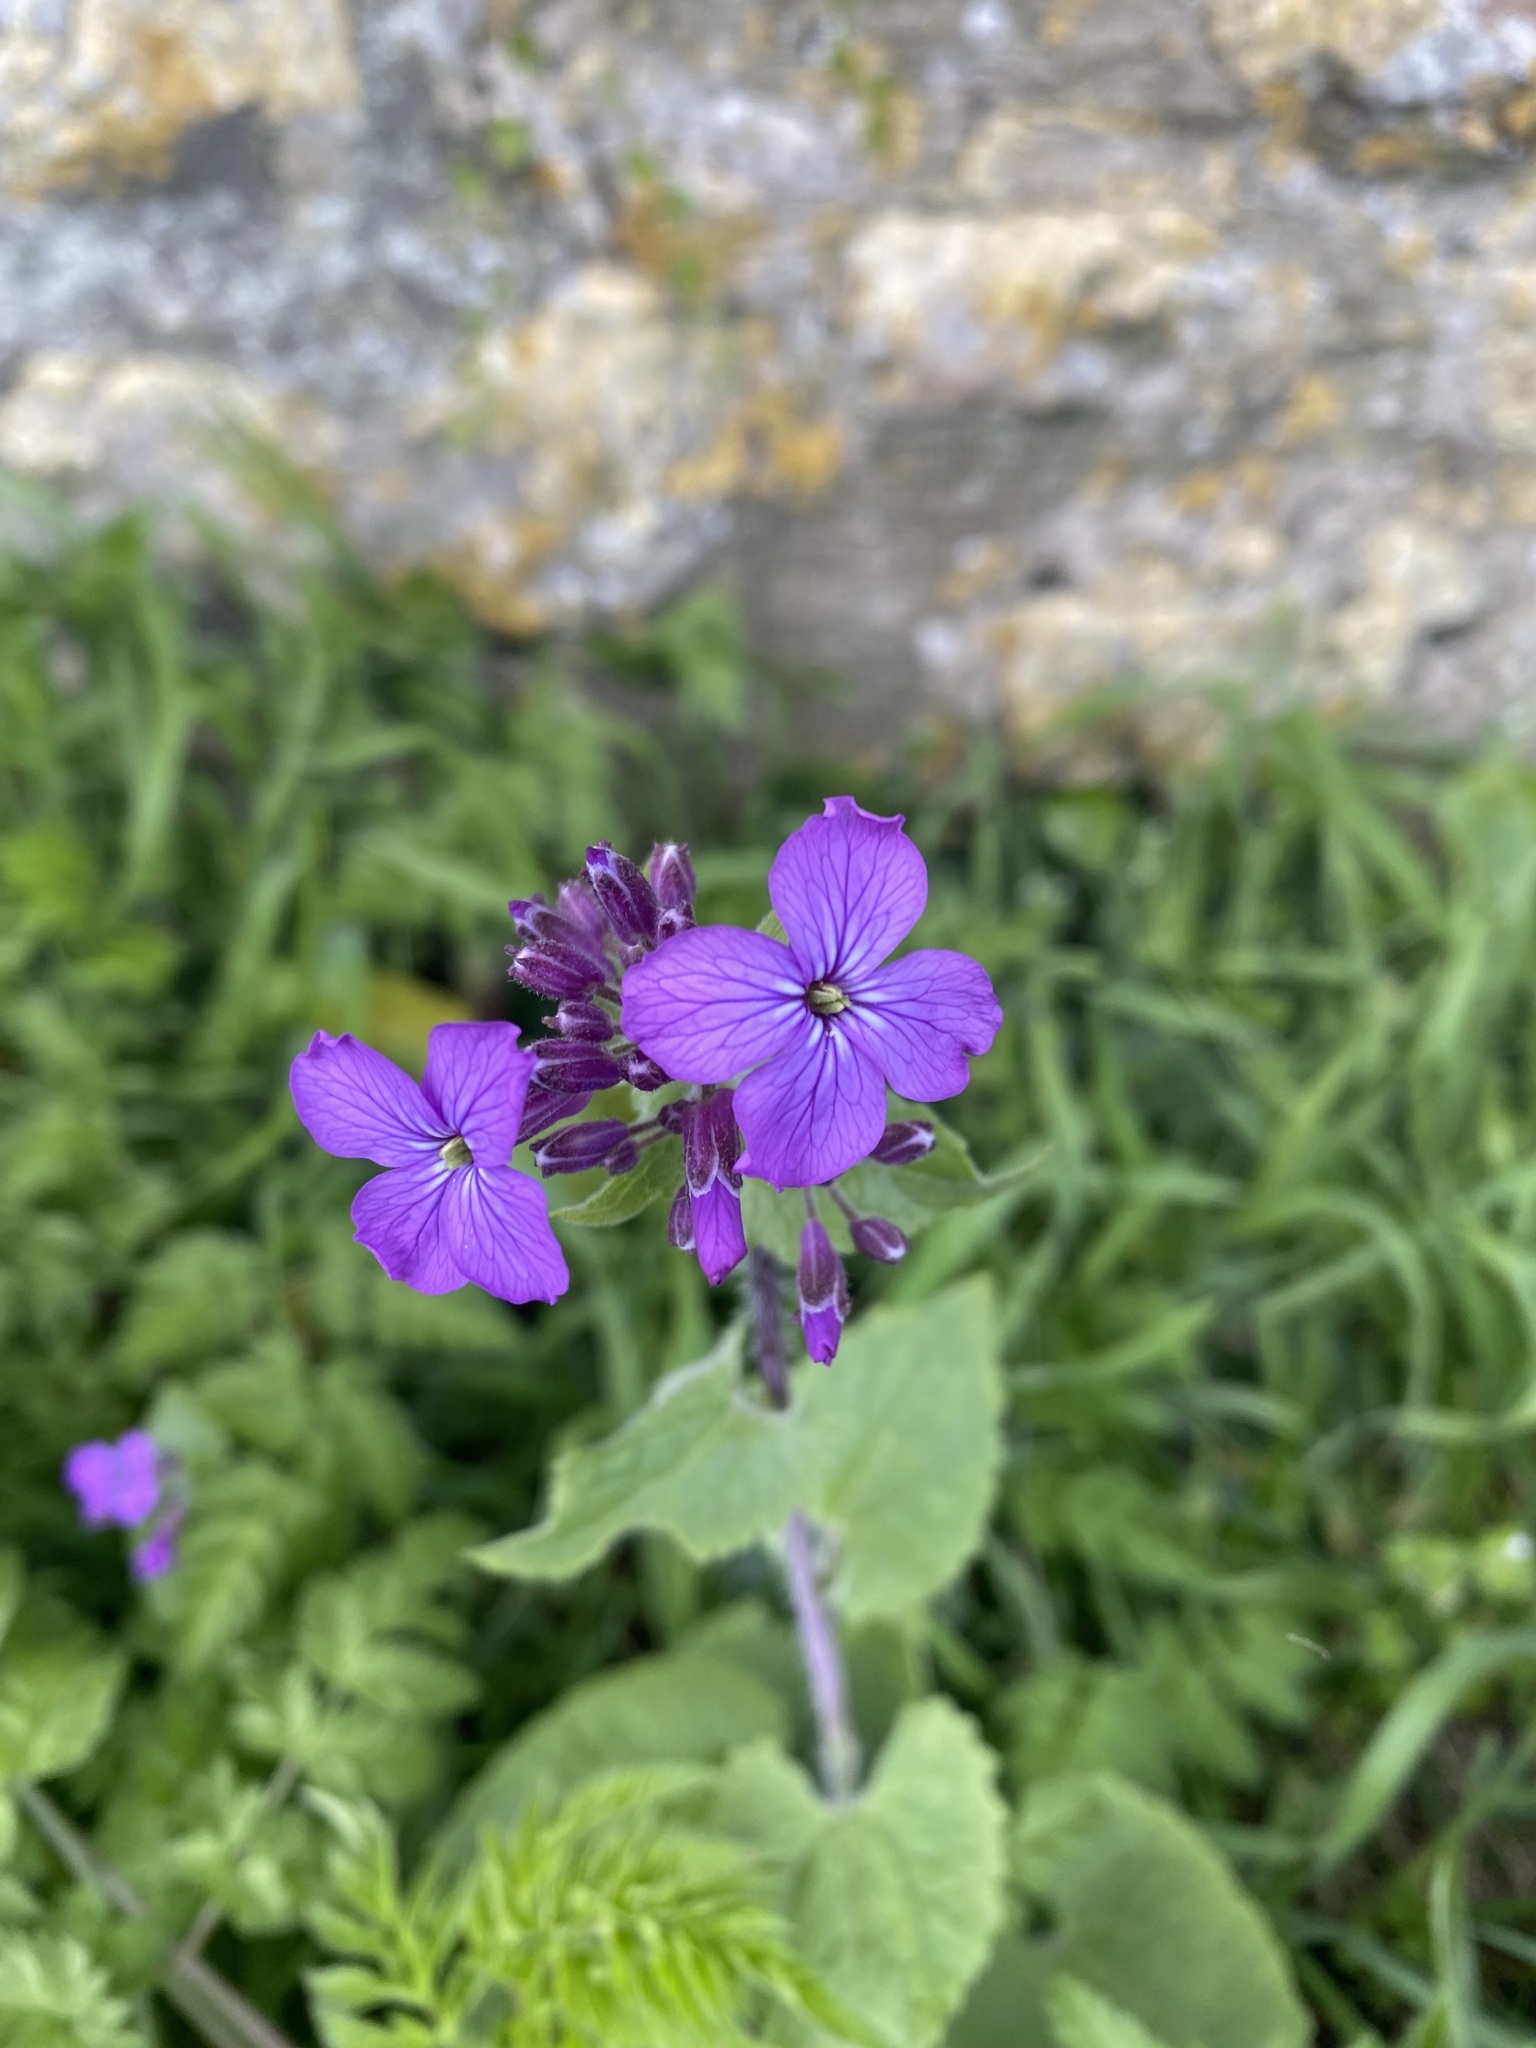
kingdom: Plantae
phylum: Tracheophyta
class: Magnoliopsida
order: Brassicales
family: Brassicaceae
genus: Lunaria
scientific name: Lunaria annua
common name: Honesty
